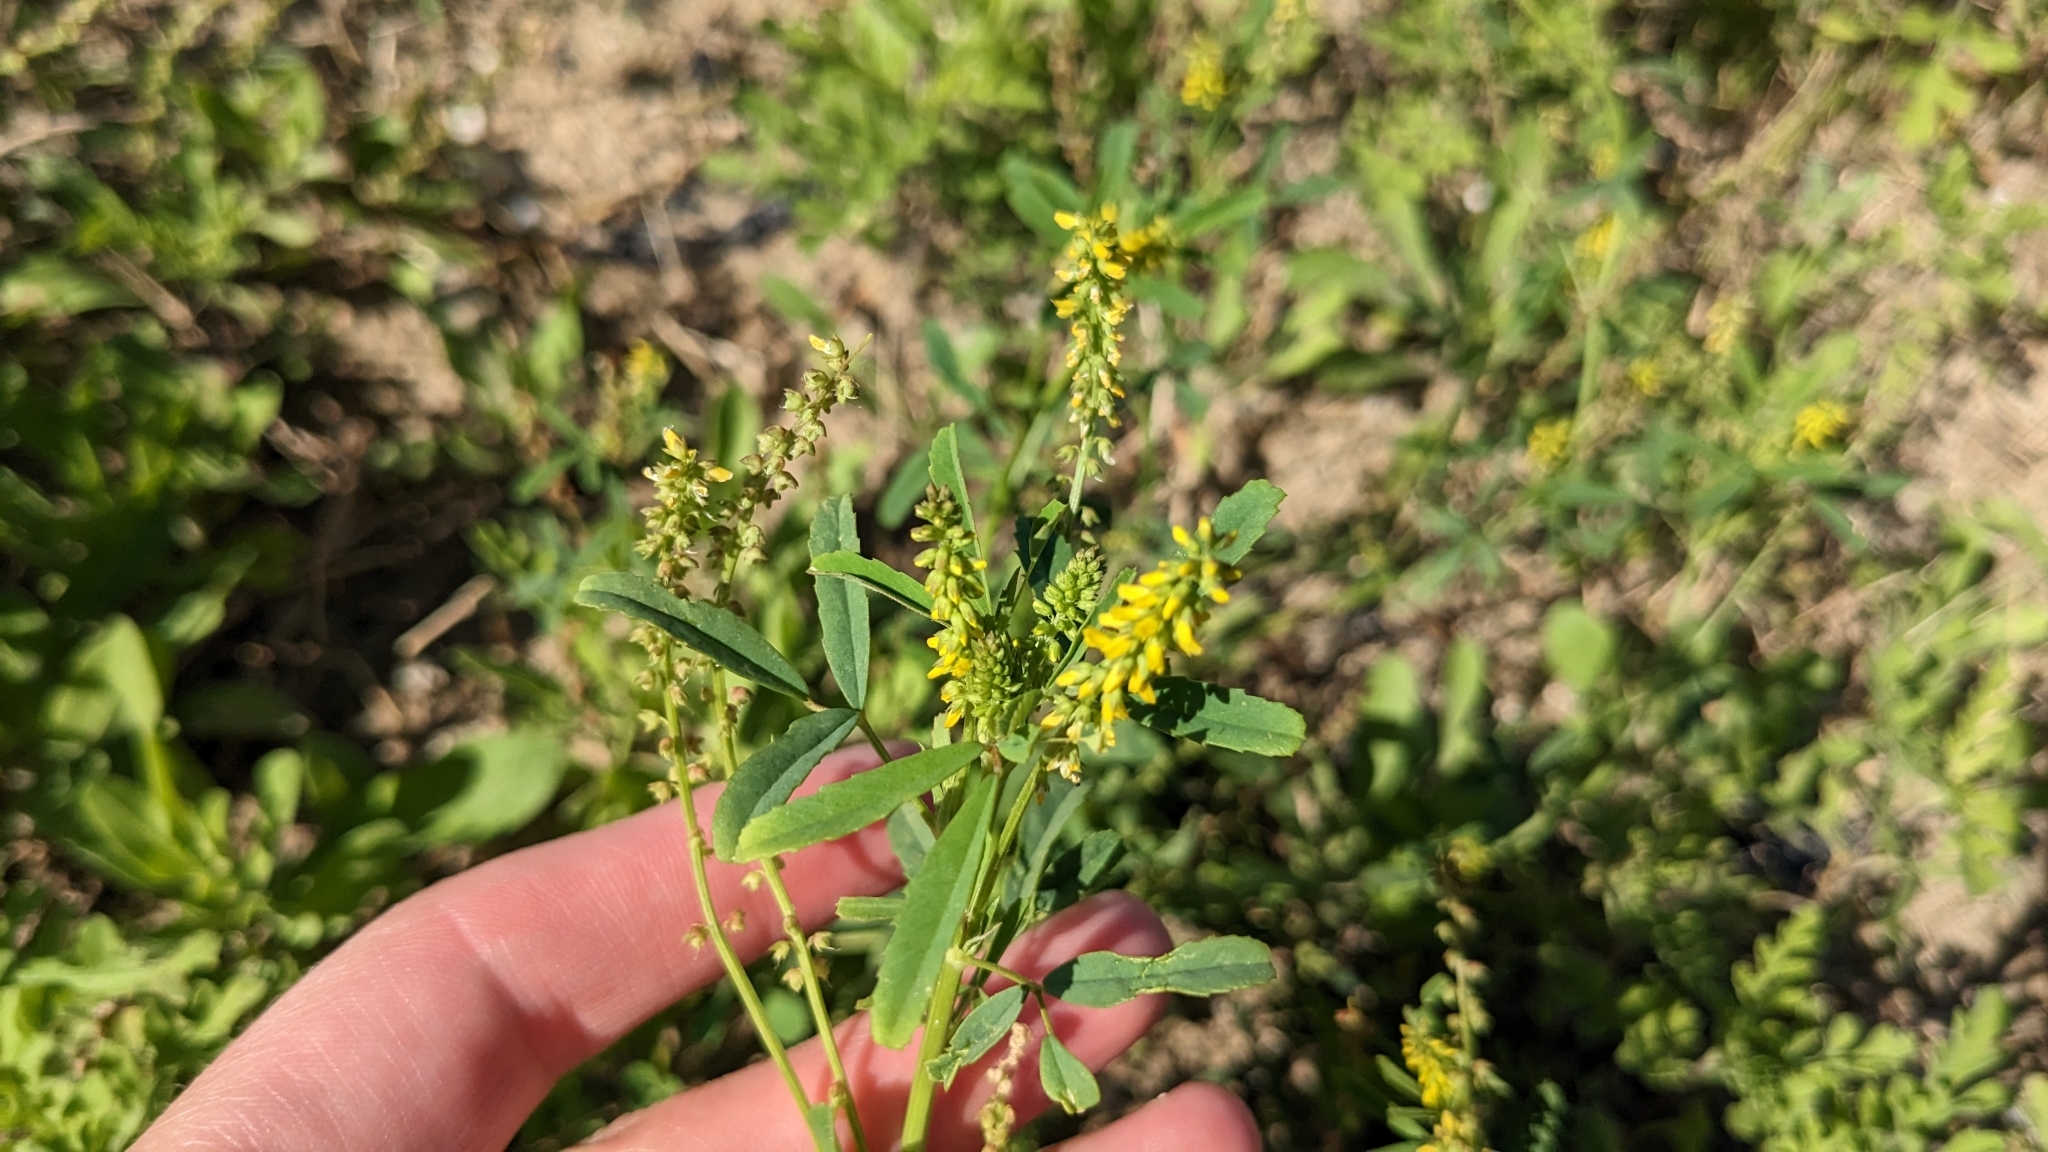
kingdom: Plantae
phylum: Tracheophyta
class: Magnoliopsida
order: Fabales
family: Fabaceae
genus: Melilotus
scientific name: Melilotus indicus
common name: Small melilot
